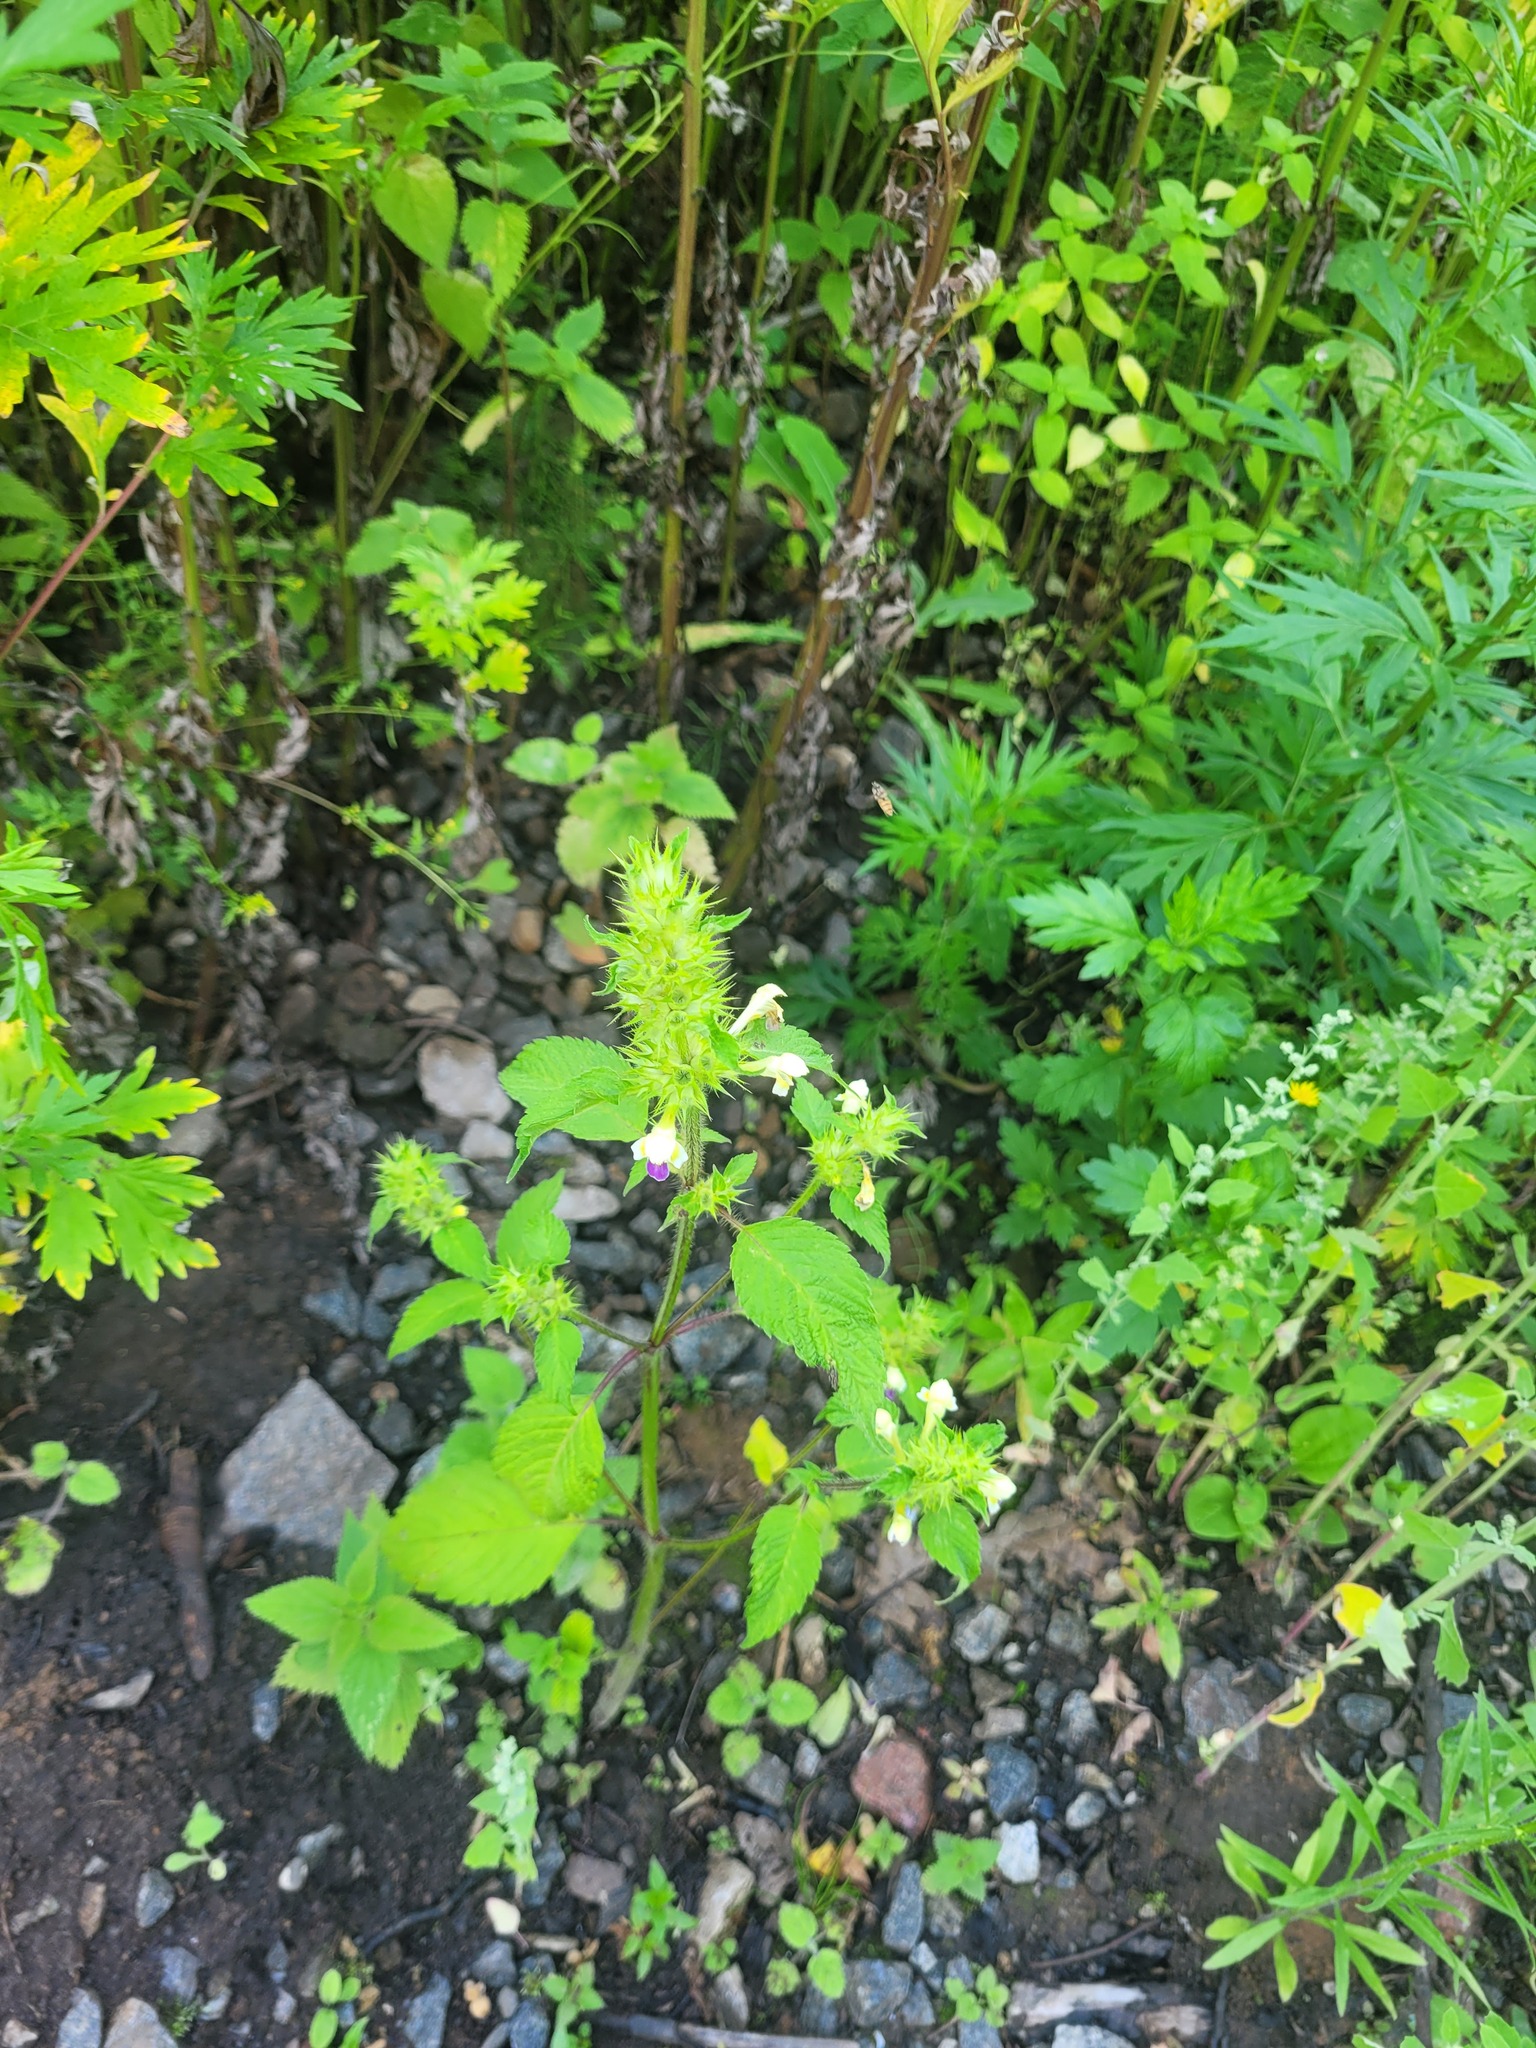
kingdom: Plantae
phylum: Tracheophyta
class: Magnoliopsida
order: Lamiales
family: Lamiaceae
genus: Galeopsis
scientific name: Galeopsis speciosa
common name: Large-flowered hemp-nettle
